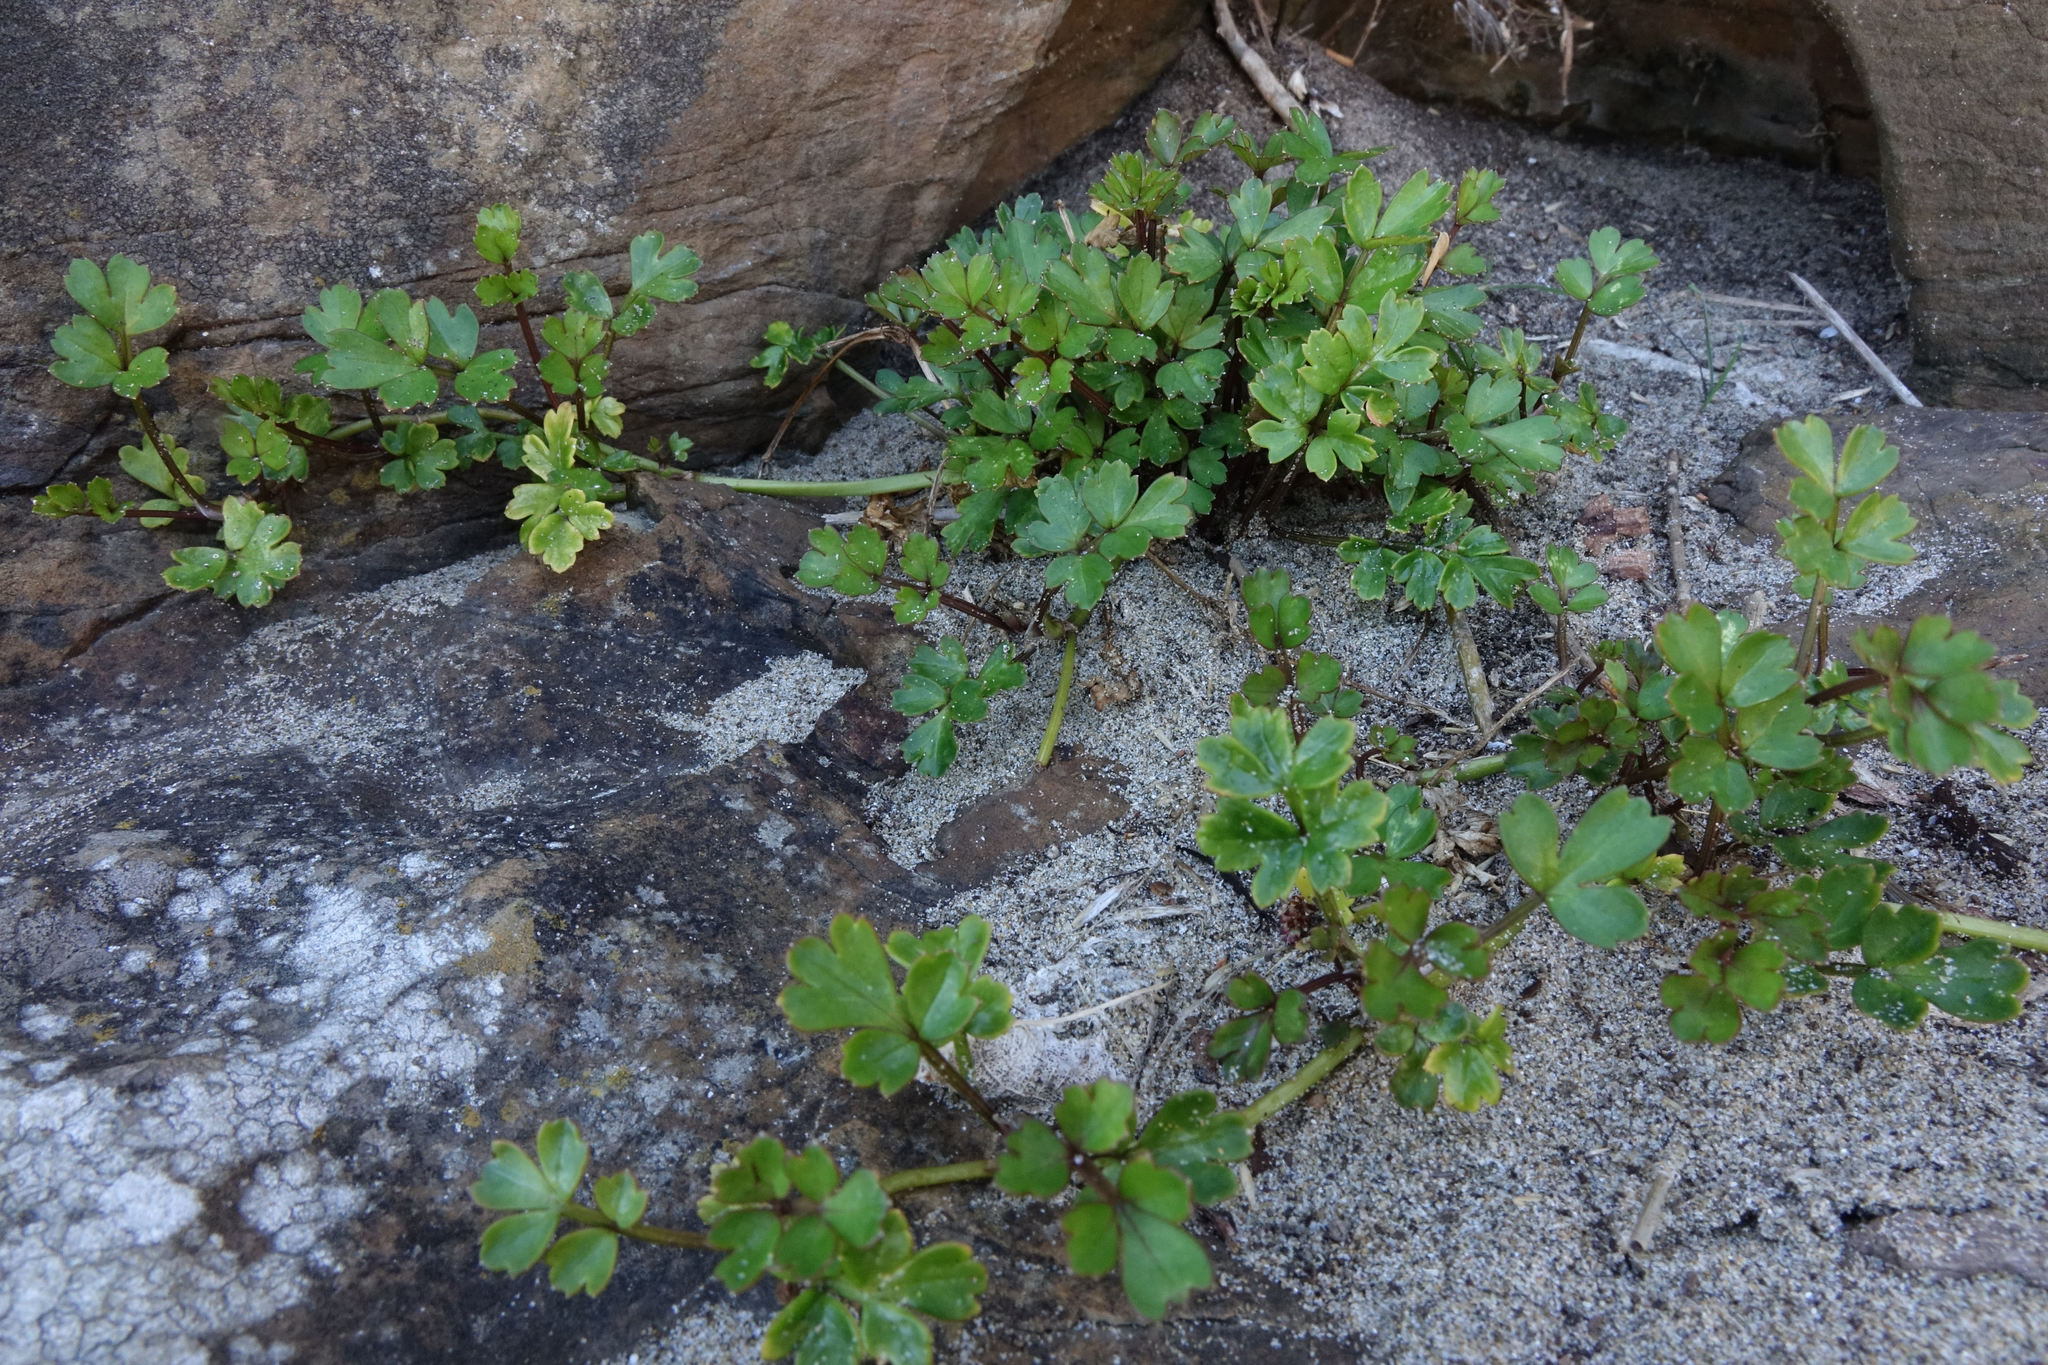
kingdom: Plantae
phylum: Tracheophyta
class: Magnoliopsida
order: Apiales
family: Apiaceae
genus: Apium
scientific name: Apium prostratum
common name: Prostrate marshwort
